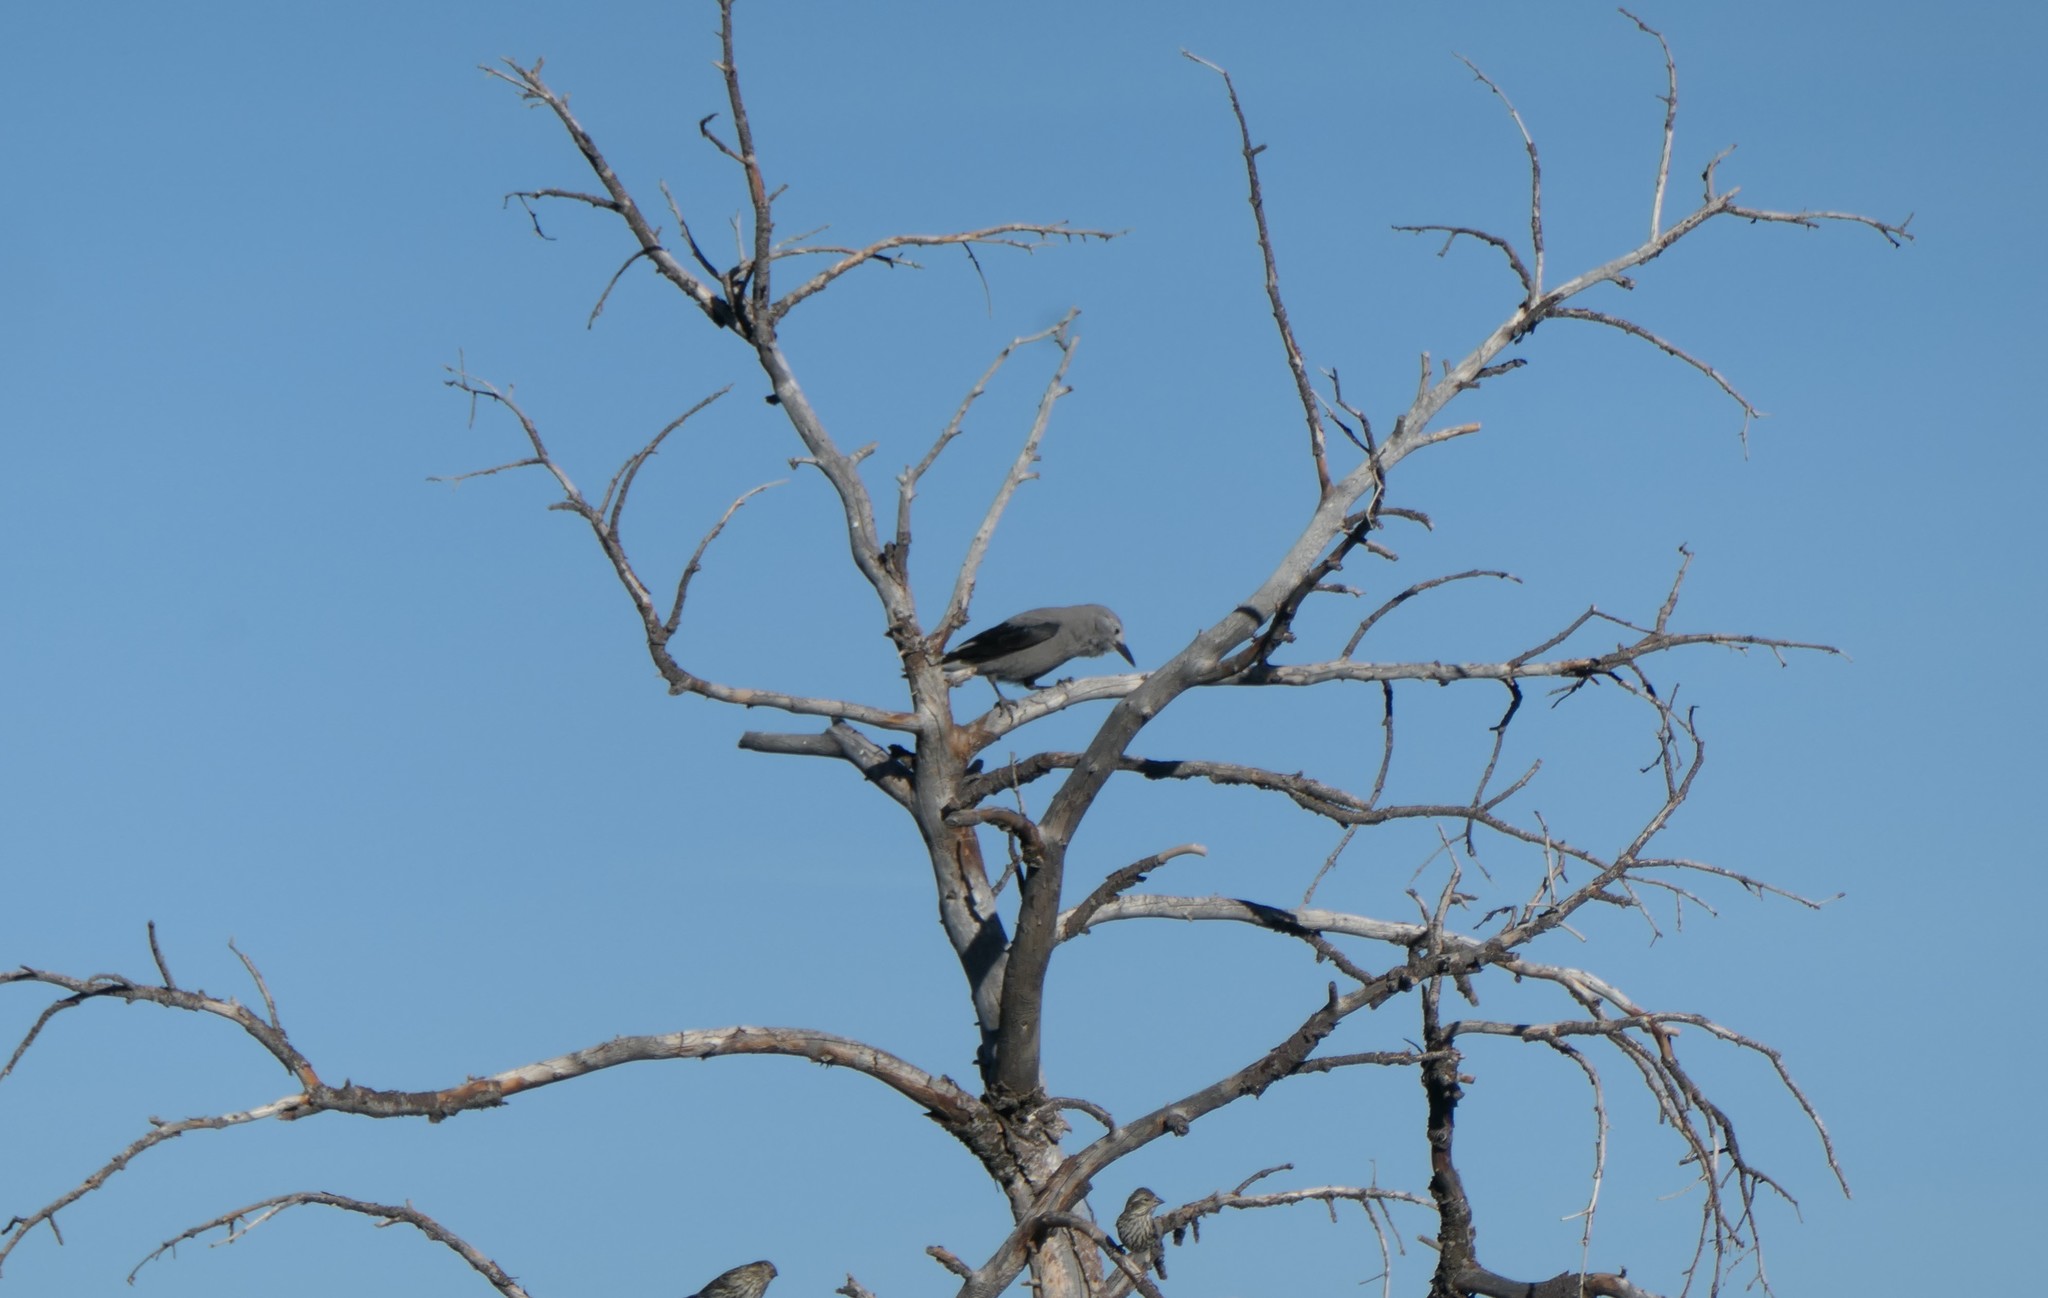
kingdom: Animalia
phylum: Chordata
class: Aves
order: Passeriformes
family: Corvidae
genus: Nucifraga
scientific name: Nucifraga columbiana
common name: Clark's nutcracker
